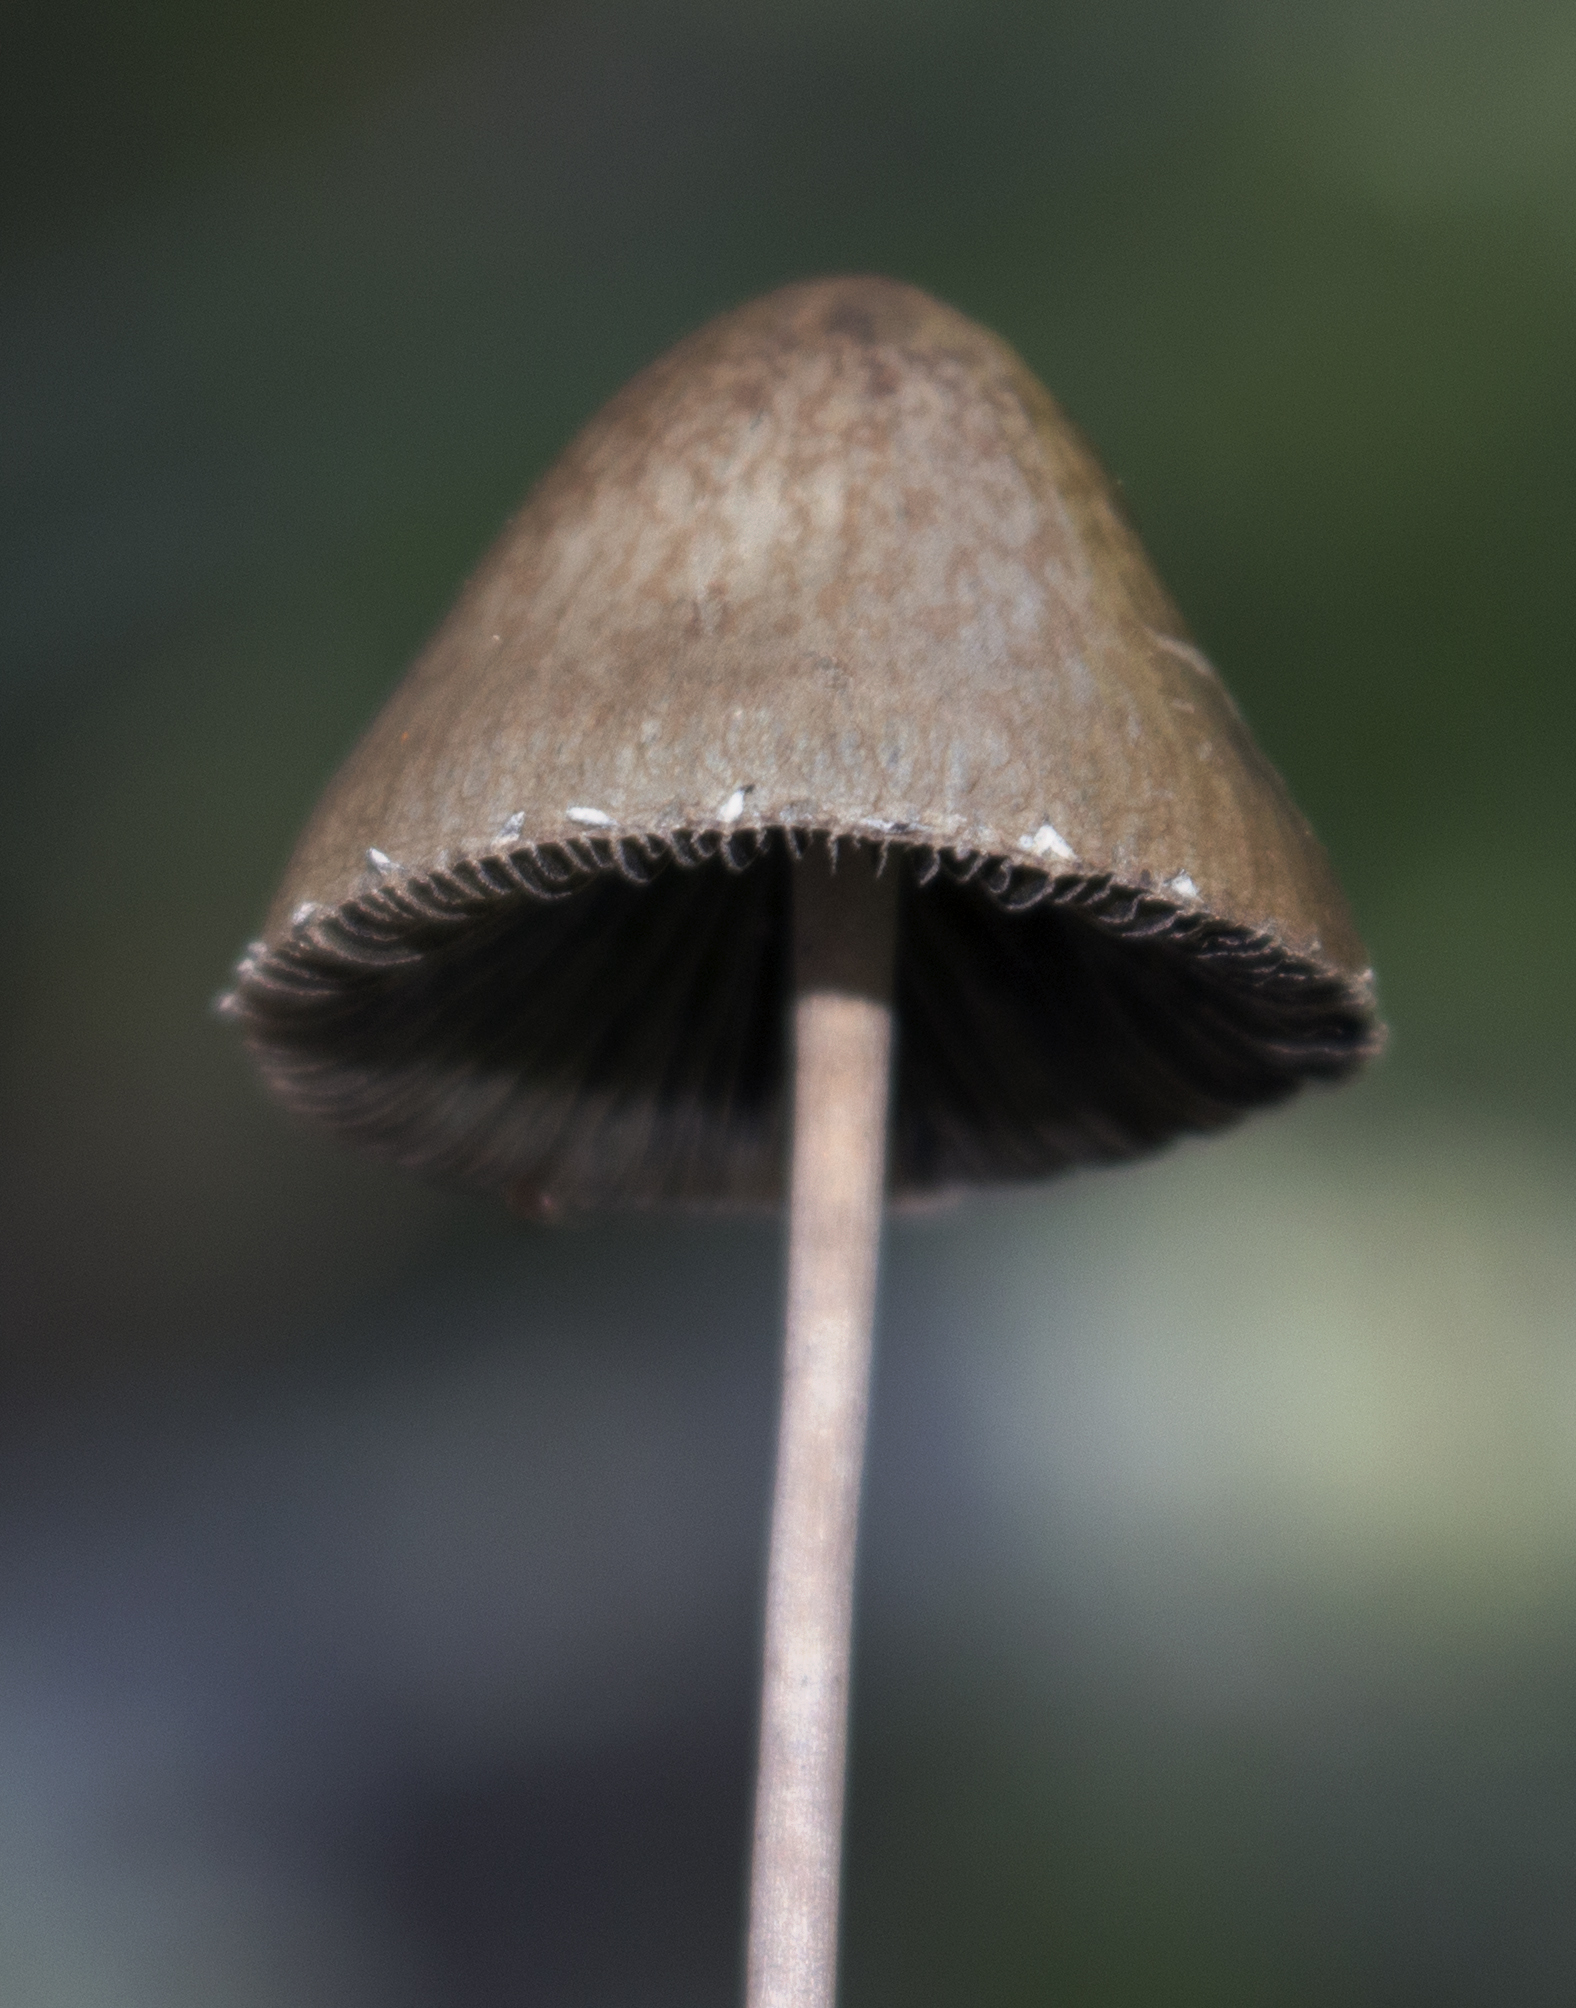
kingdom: Fungi
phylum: Basidiomycota
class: Agaricomycetes
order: Agaricales
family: Bolbitiaceae
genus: Panaeolus
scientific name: Panaeolus papilionaceus
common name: Petticoat mottlegill
